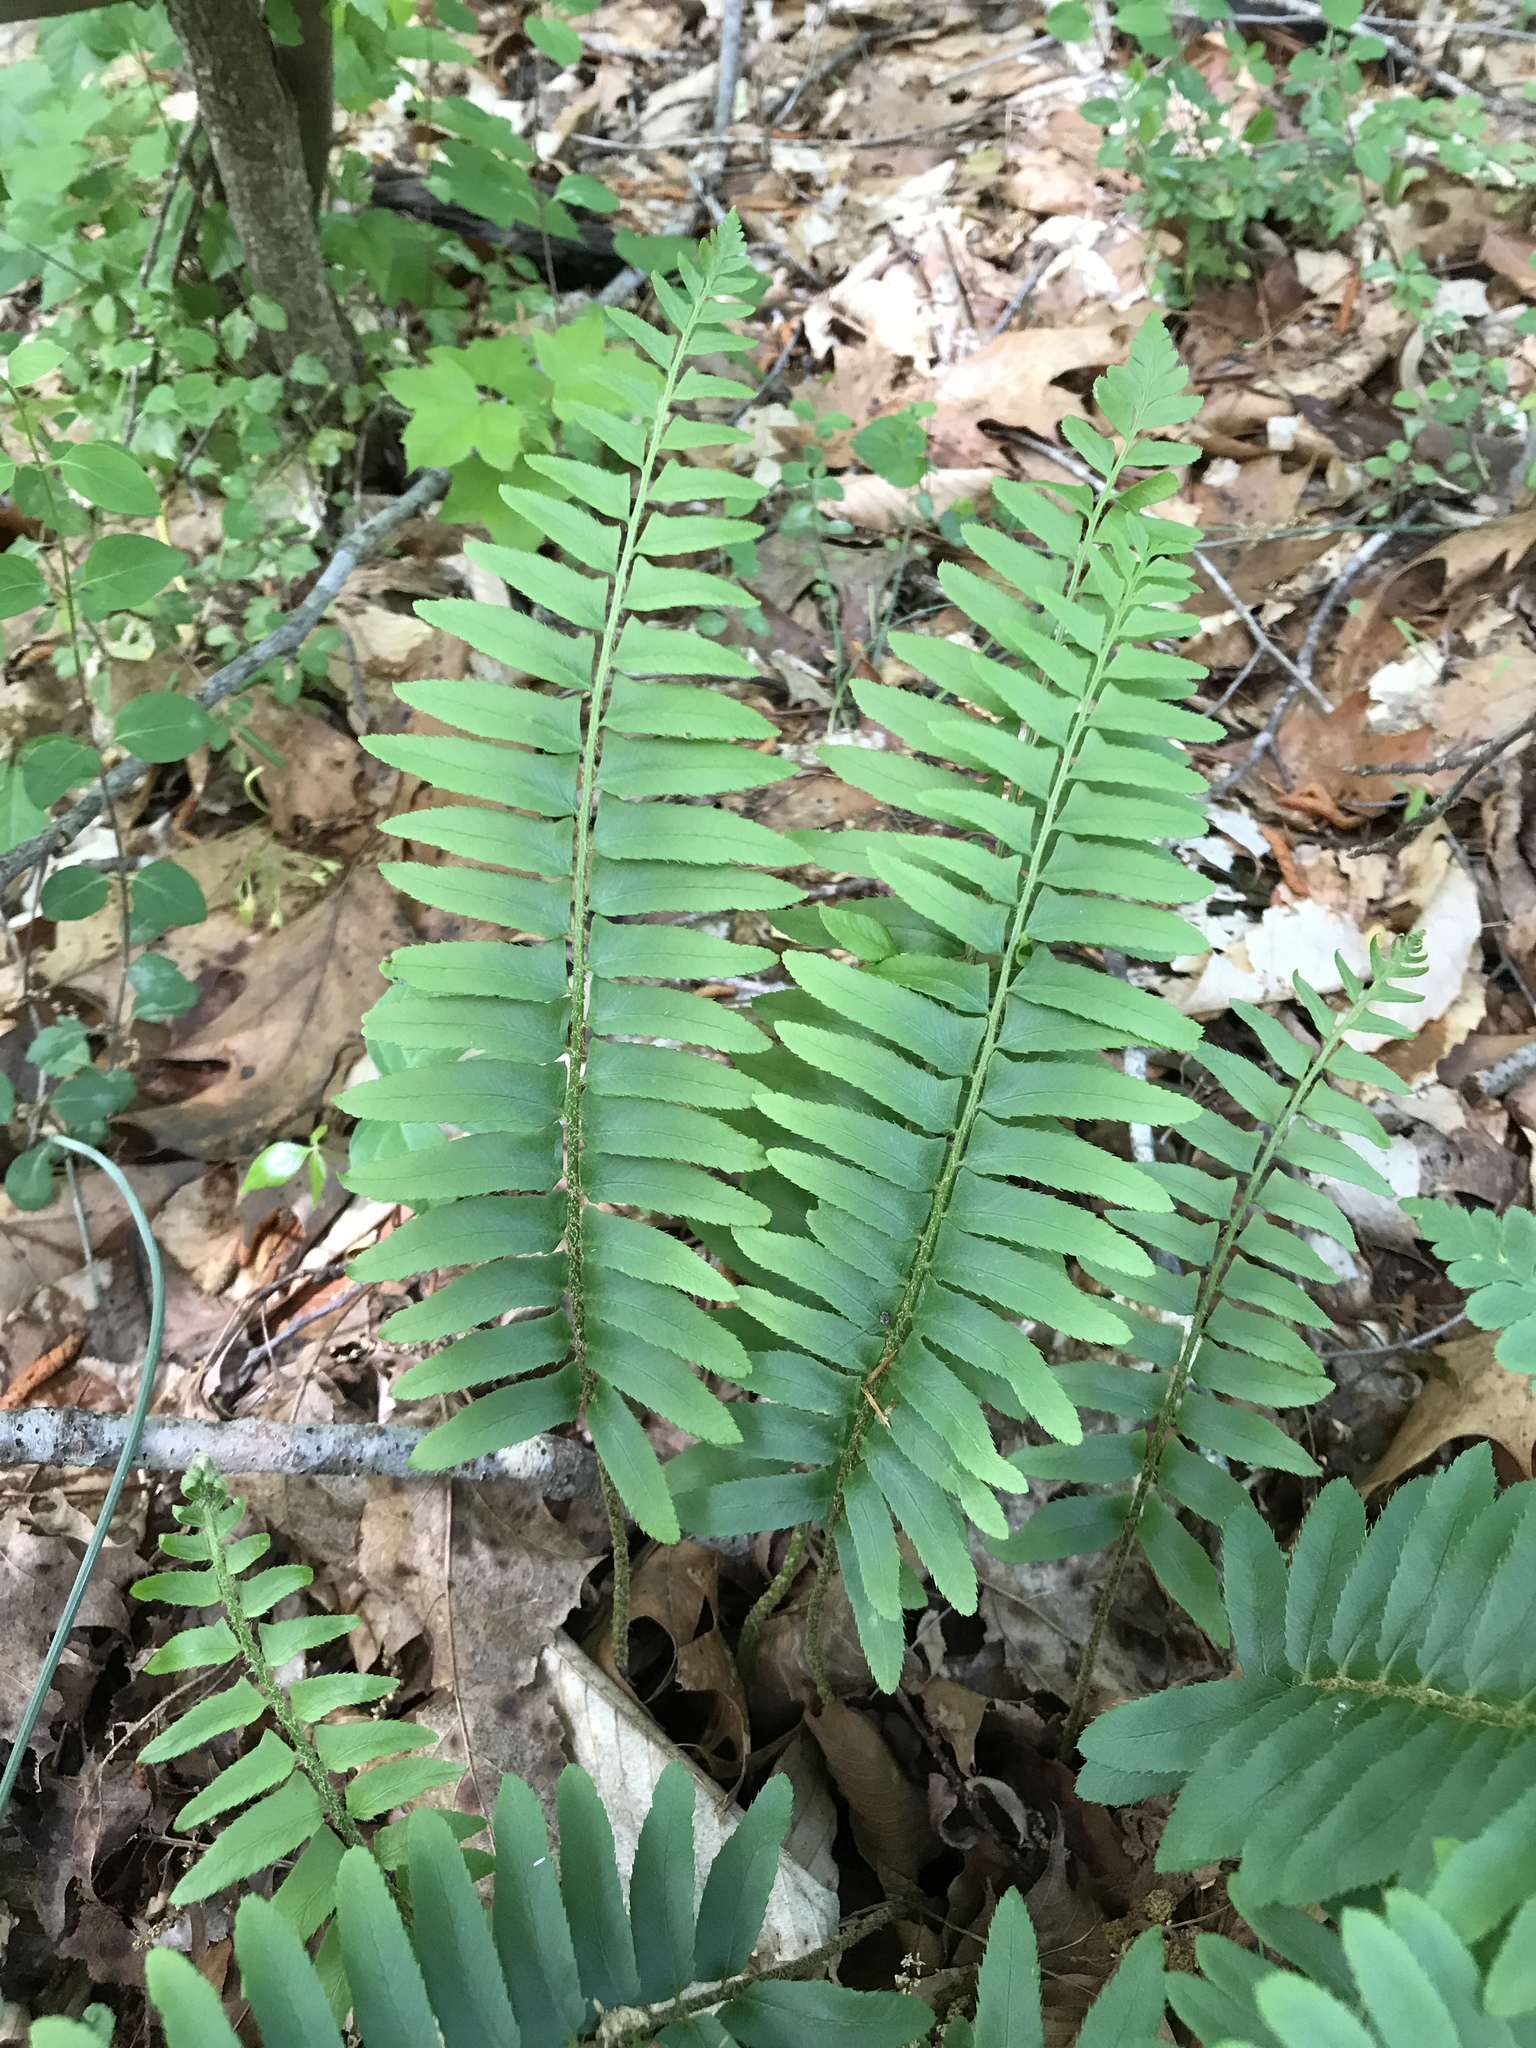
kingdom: Plantae
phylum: Tracheophyta
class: Polypodiopsida
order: Polypodiales
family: Dryopteridaceae
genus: Polystichum
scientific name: Polystichum acrostichoides
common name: Christmas fern
